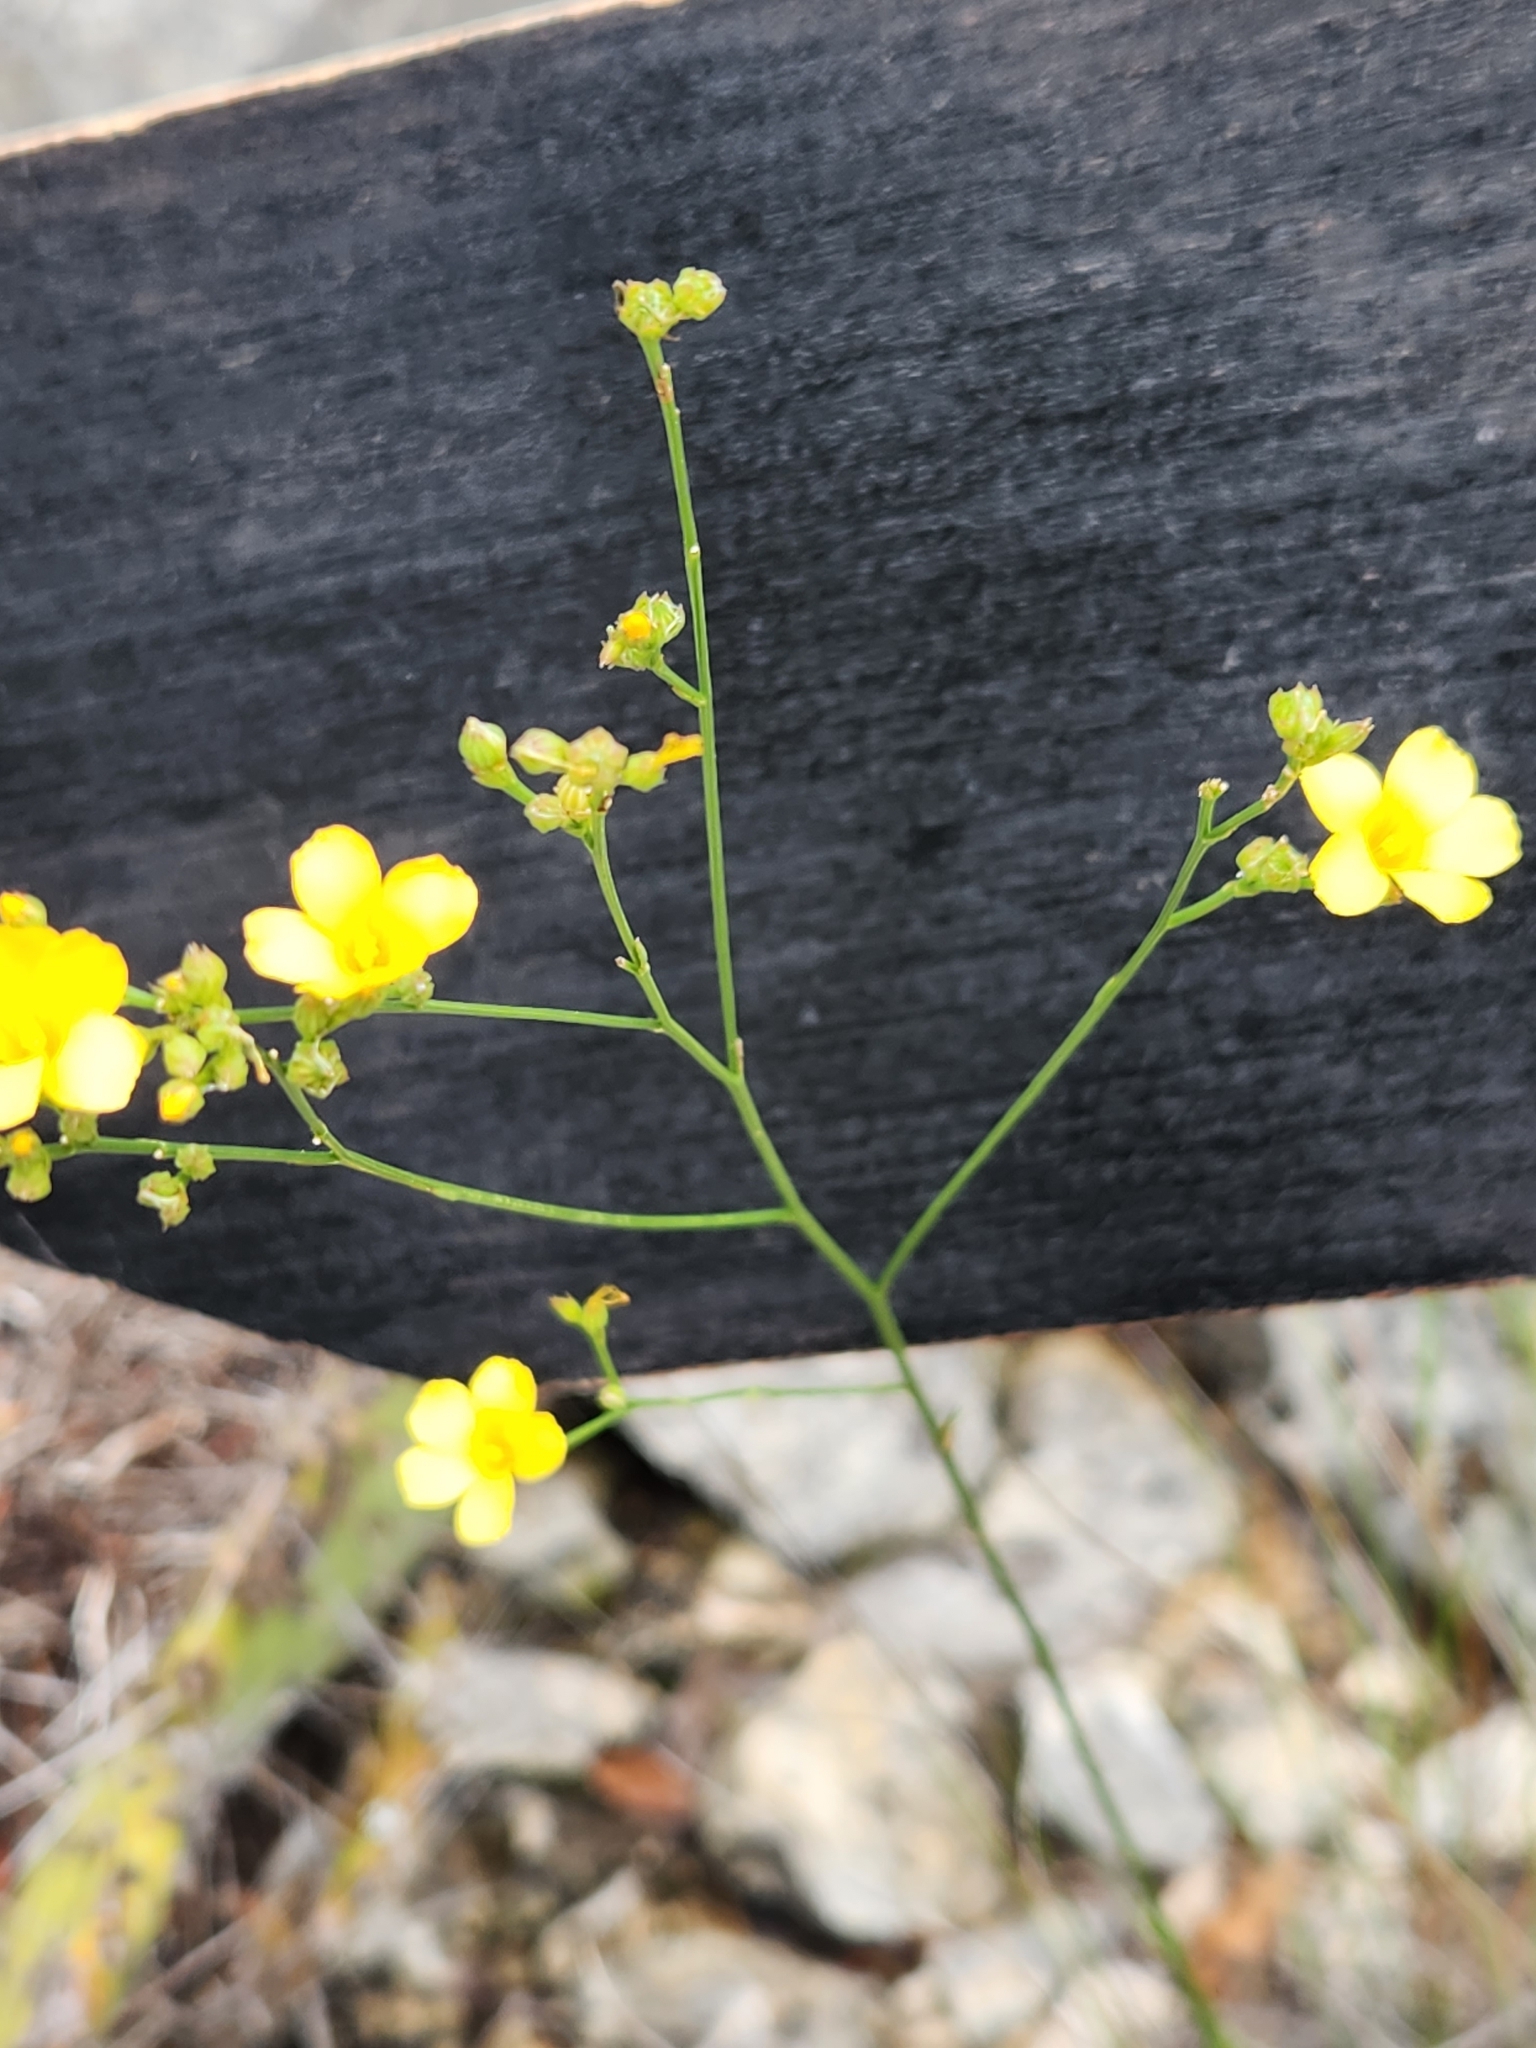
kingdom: Plantae
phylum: Tracheophyta
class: Magnoliopsida
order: Malpighiales
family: Linaceae
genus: Linum
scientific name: Linum rupestre
